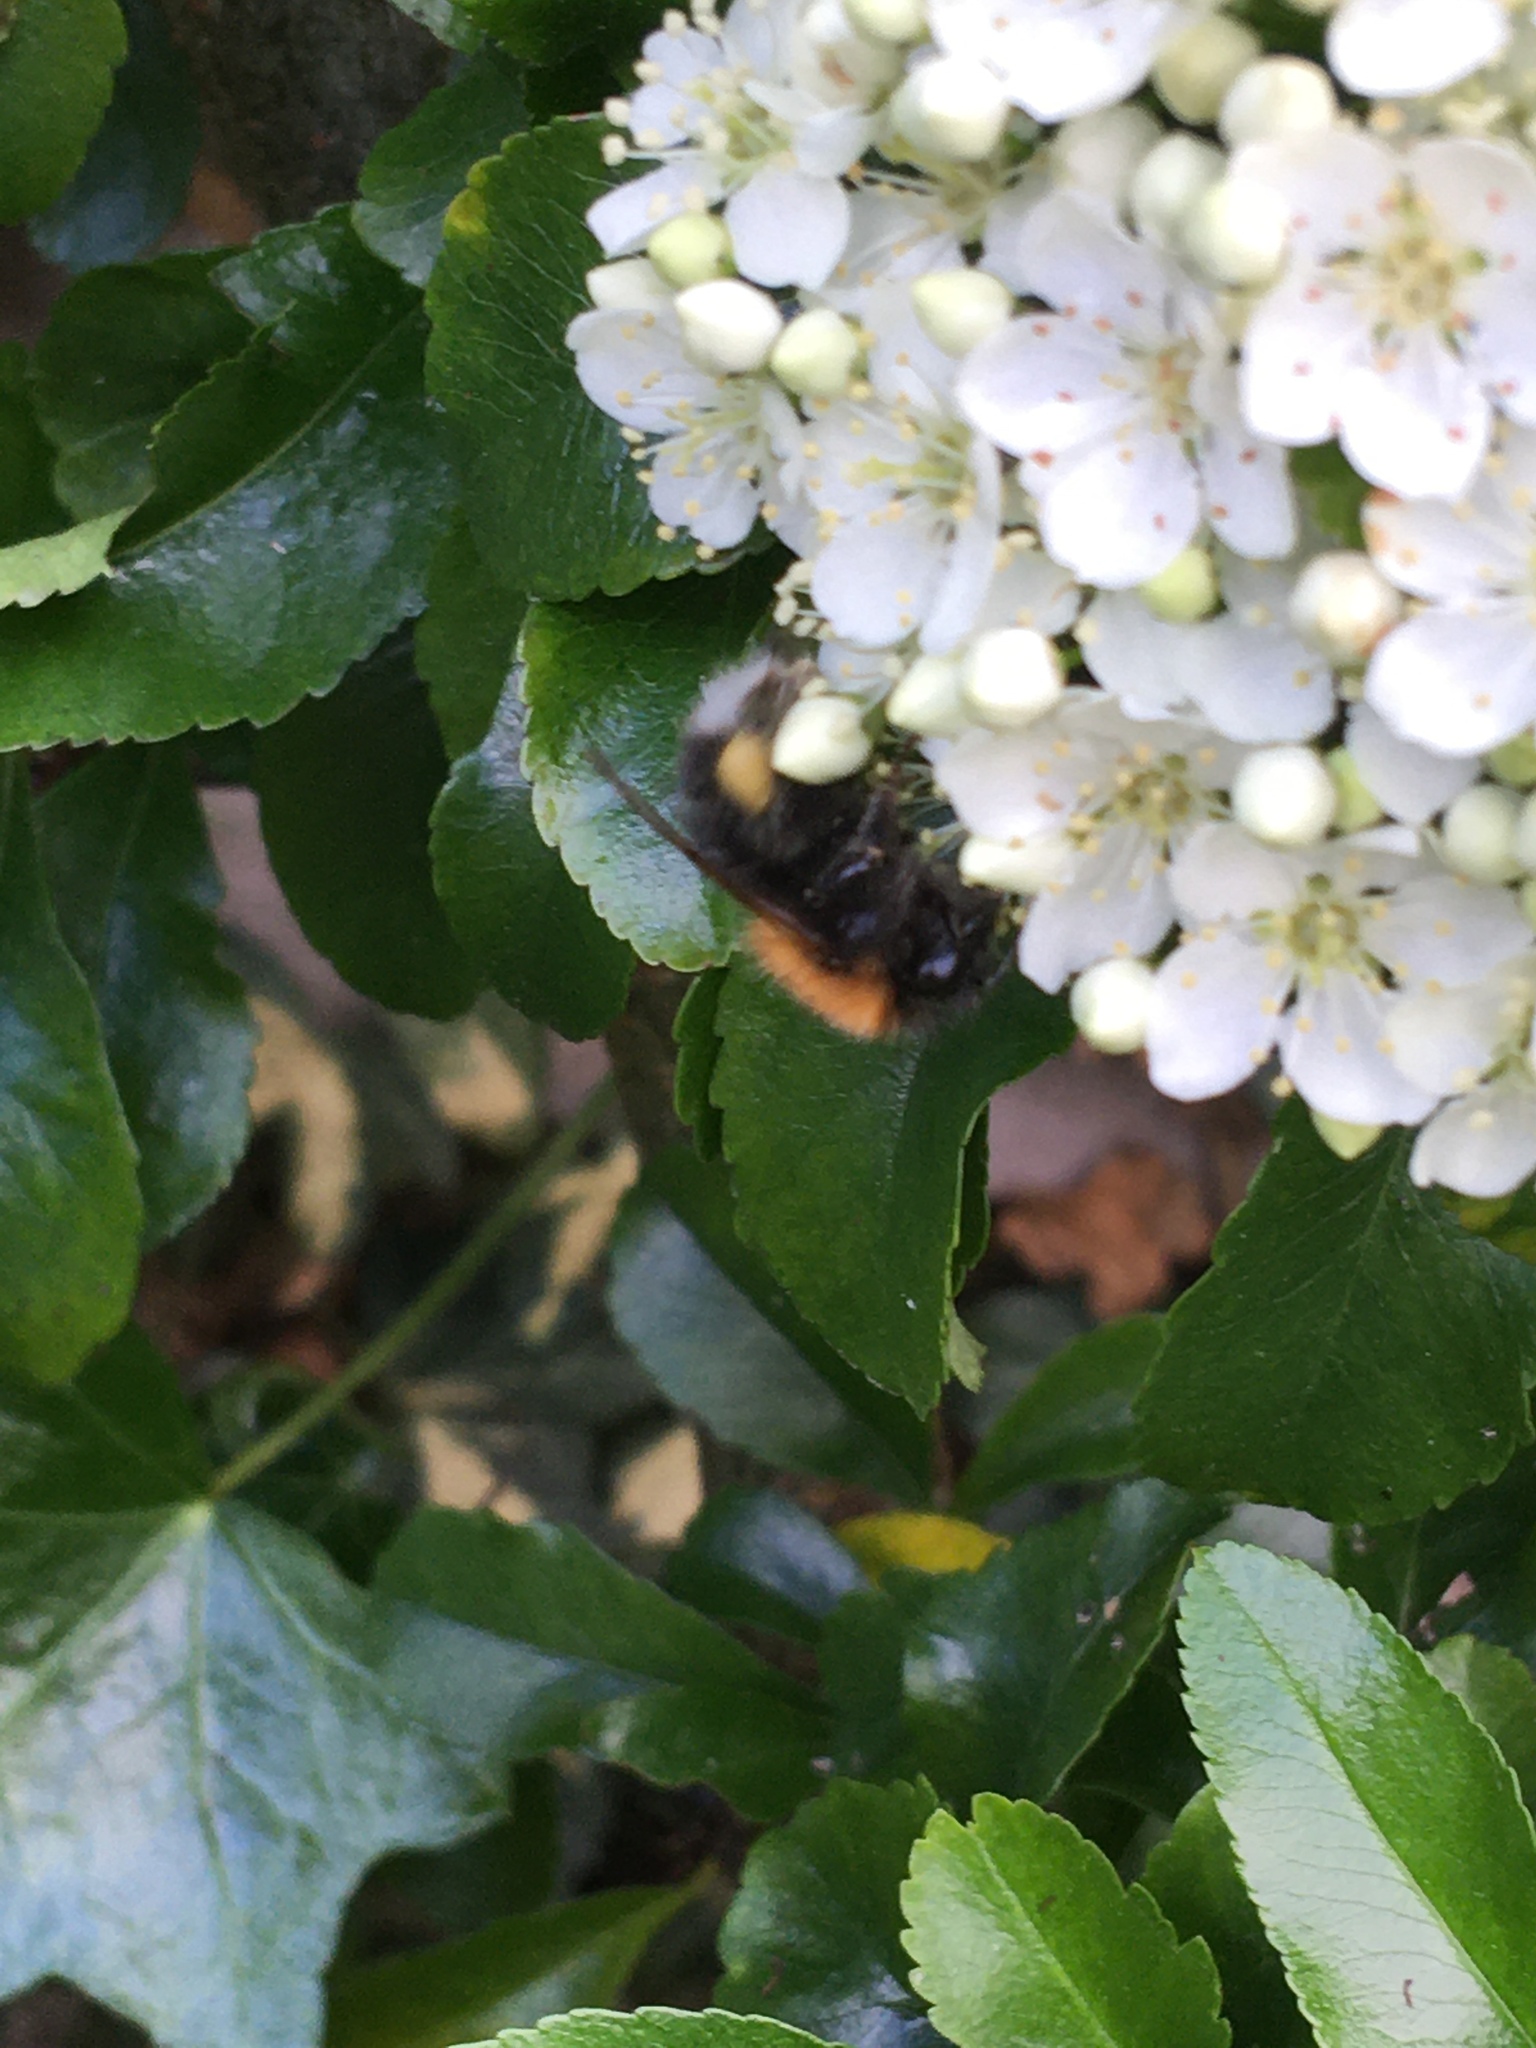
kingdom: Animalia
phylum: Arthropoda
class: Insecta
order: Hymenoptera
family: Apidae
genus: Bombus
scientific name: Bombus hypnorum
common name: New garden bumblebee
